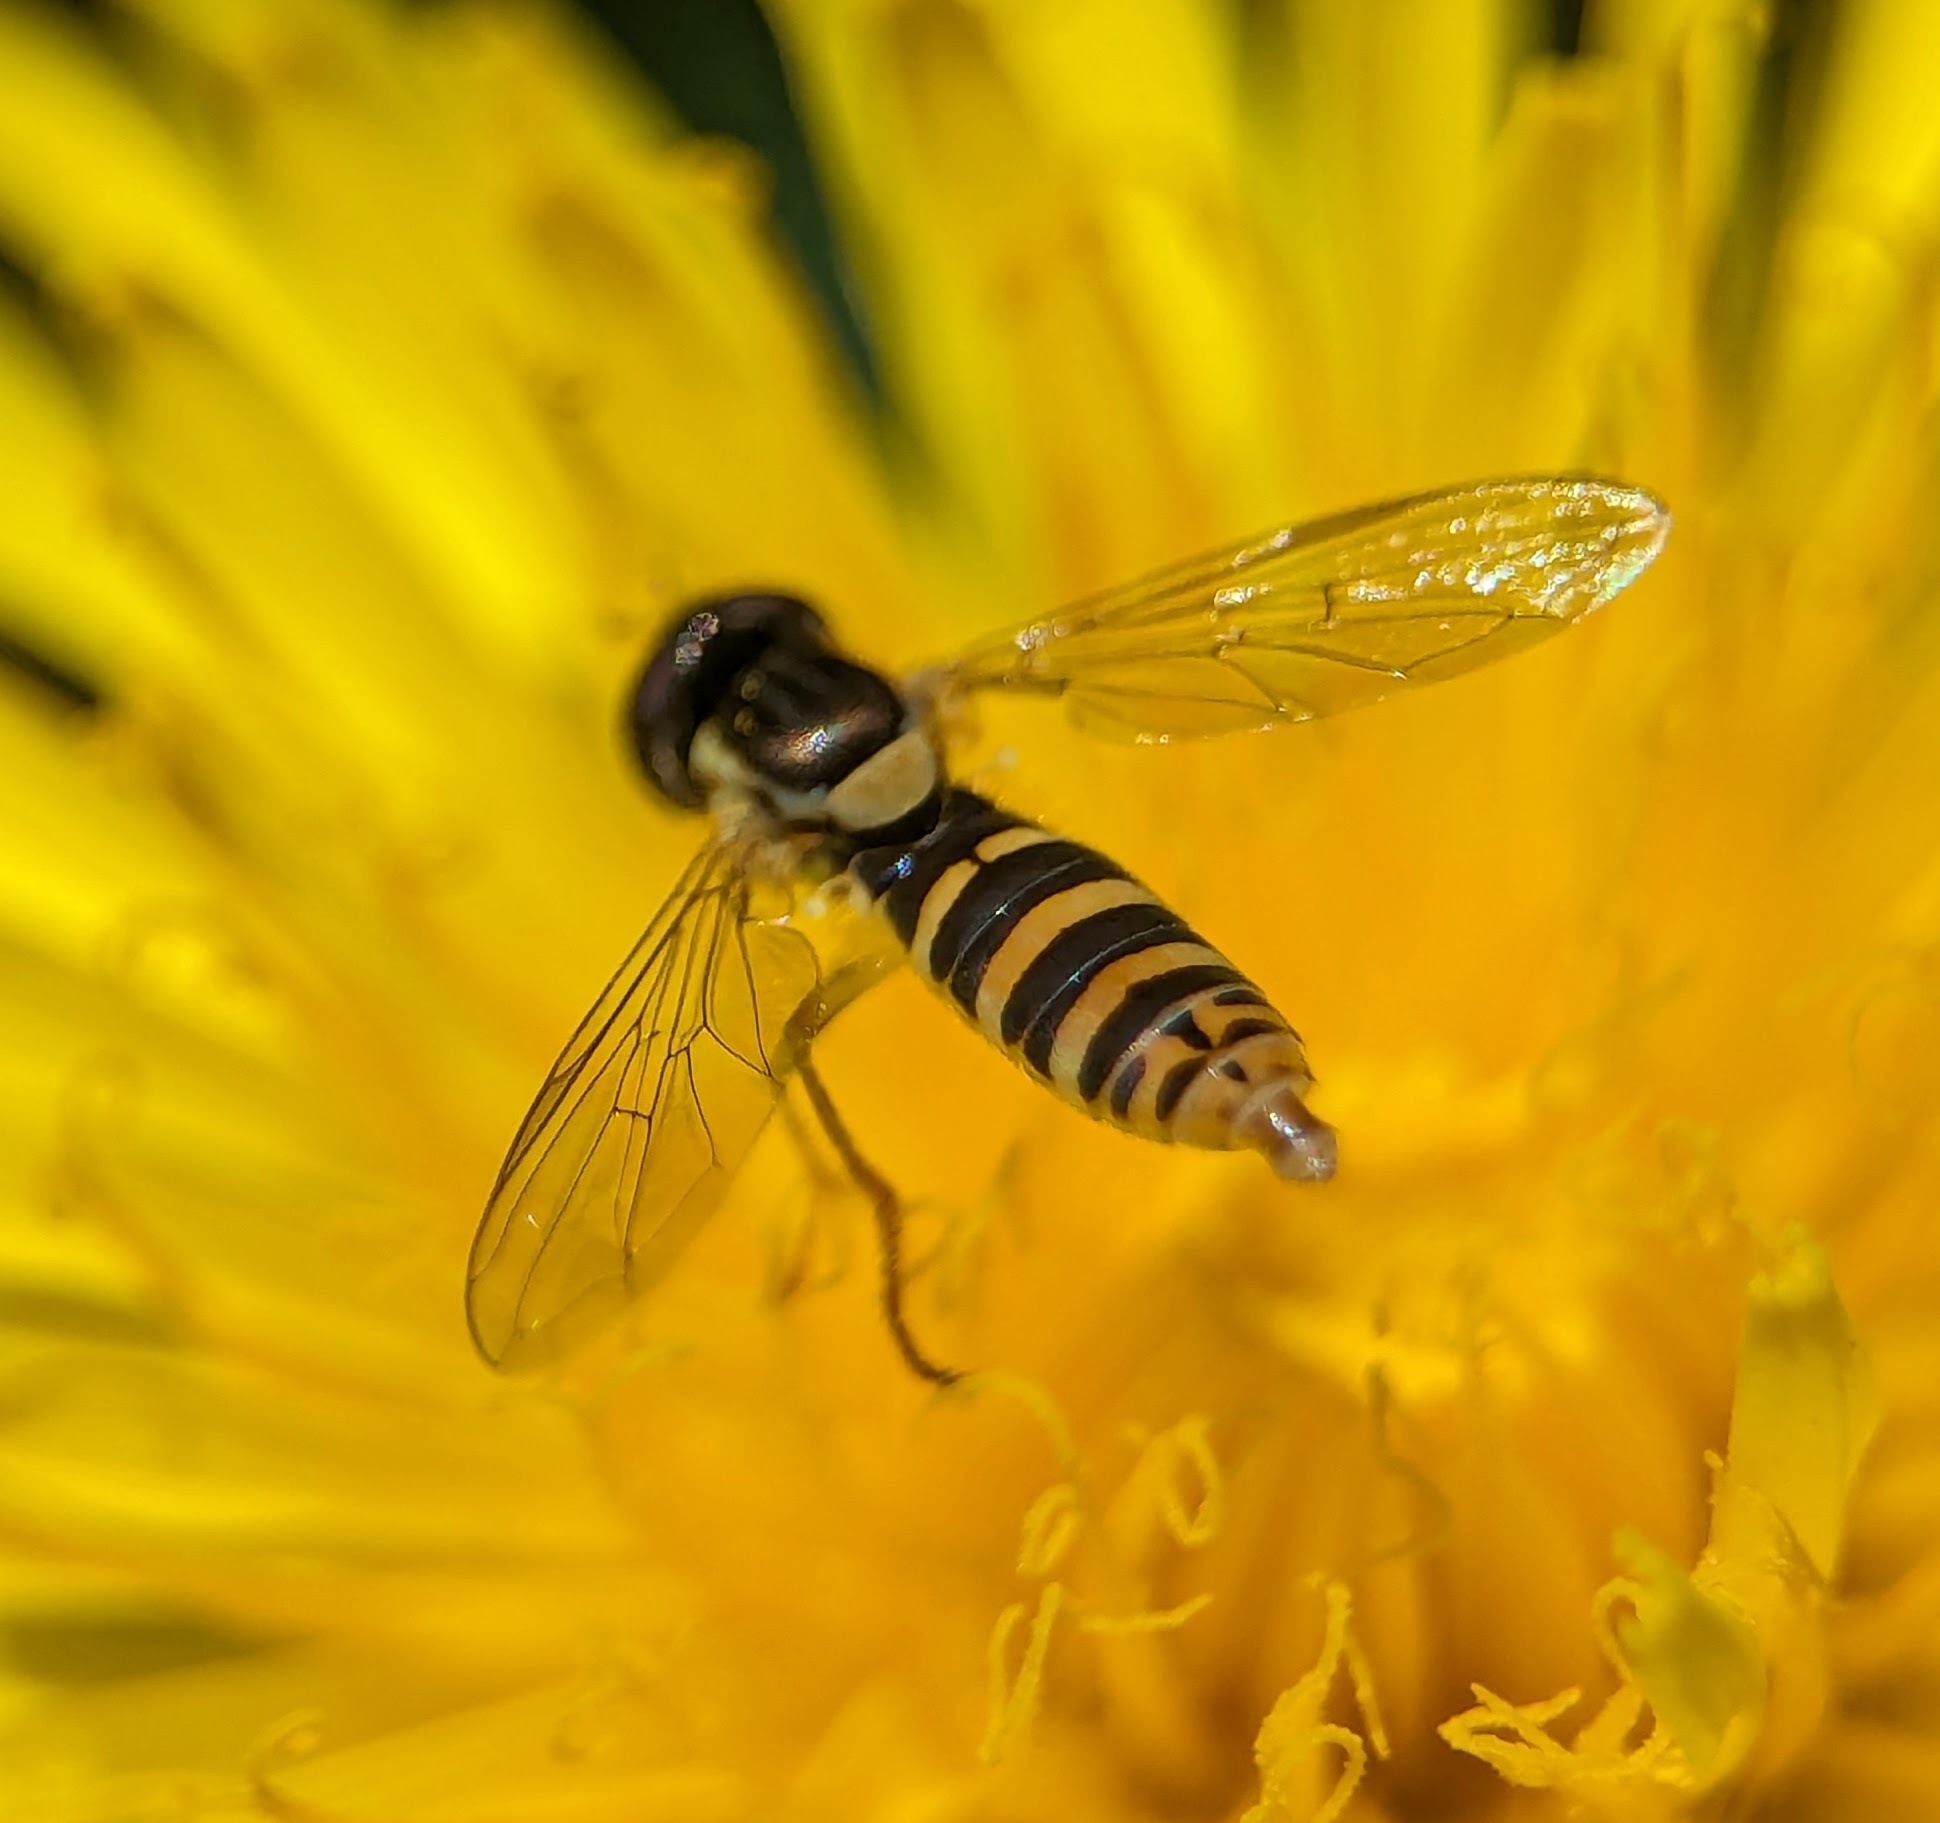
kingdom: Animalia
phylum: Arthropoda
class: Insecta
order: Diptera
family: Syrphidae
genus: Sphaerophoria
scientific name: Sphaerophoria
